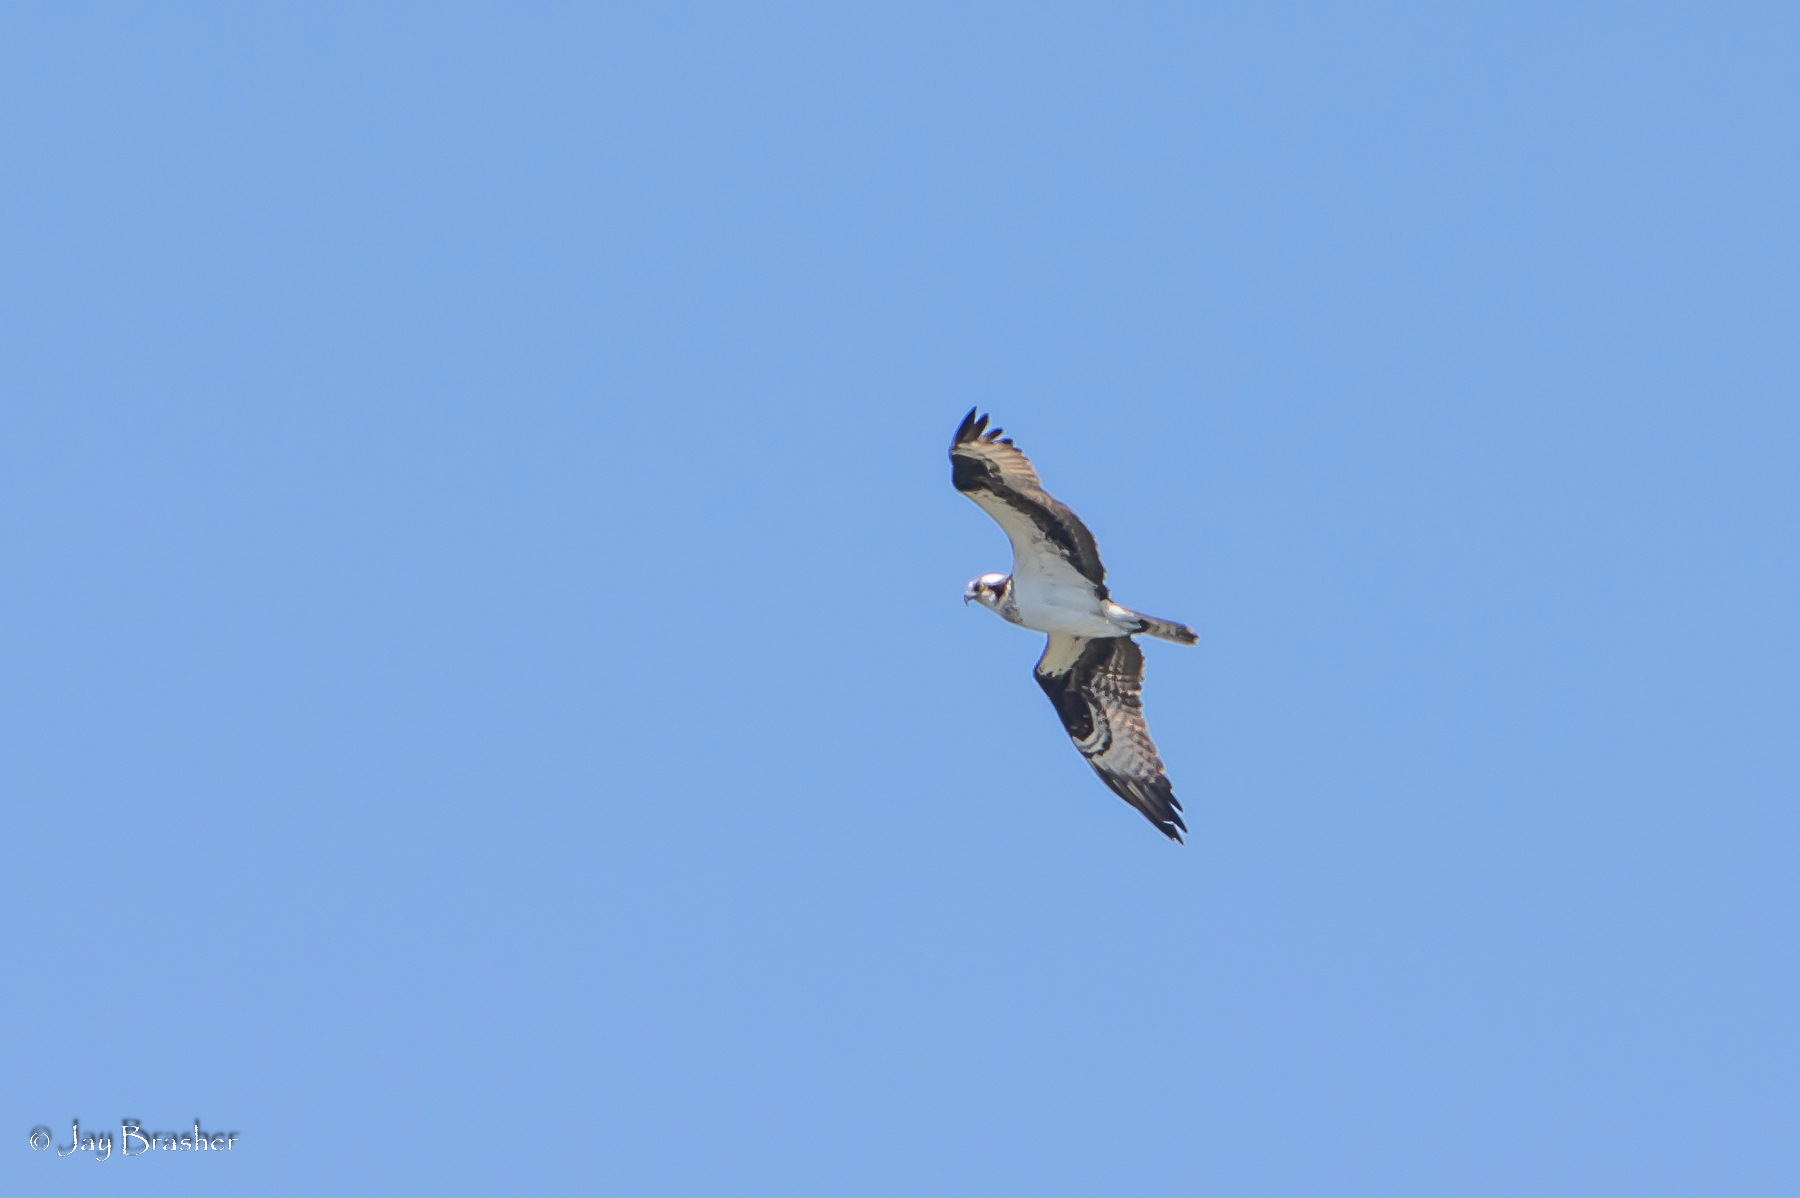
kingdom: Animalia
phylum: Chordata
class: Aves
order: Accipitriformes
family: Pandionidae
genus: Pandion
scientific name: Pandion haliaetus
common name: Osprey
